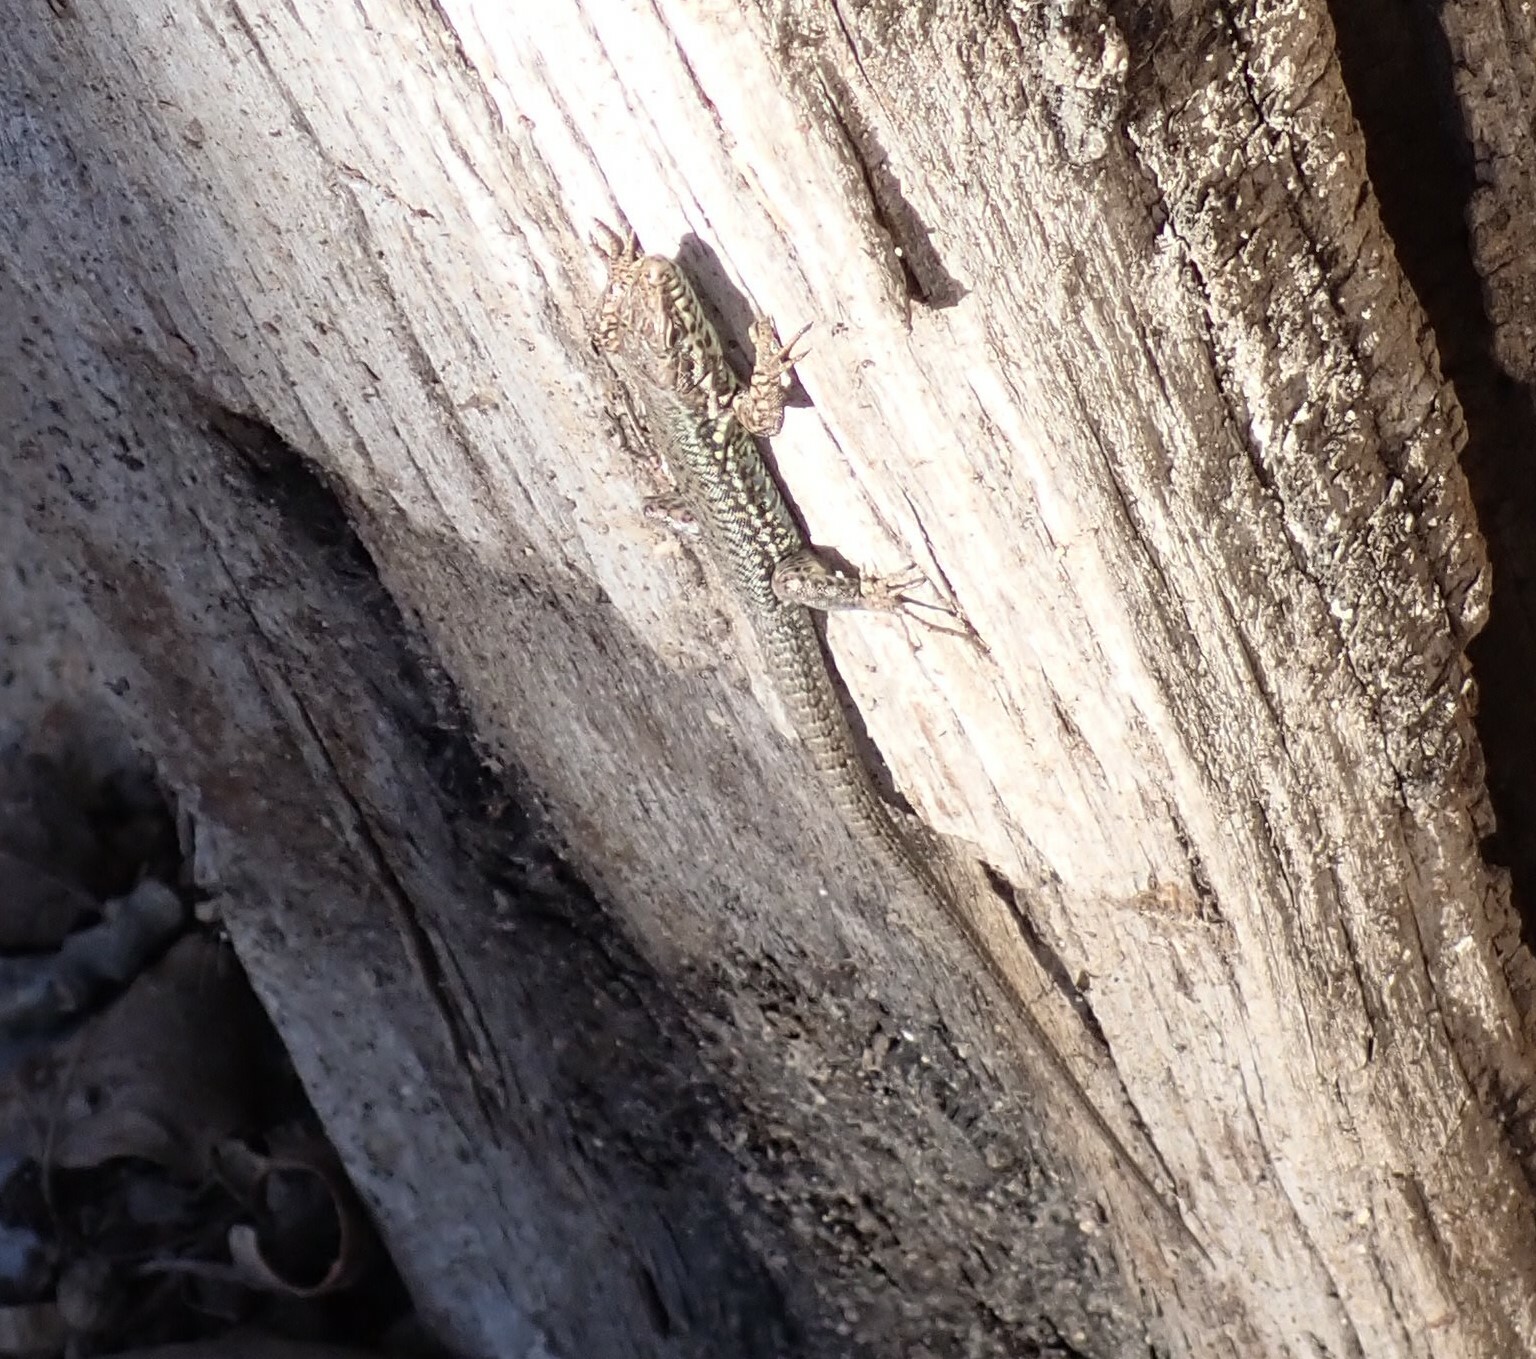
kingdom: Animalia
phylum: Chordata
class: Squamata
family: Lacertidae
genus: Podarcis
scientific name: Podarcis muralis
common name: Common wall lizard
